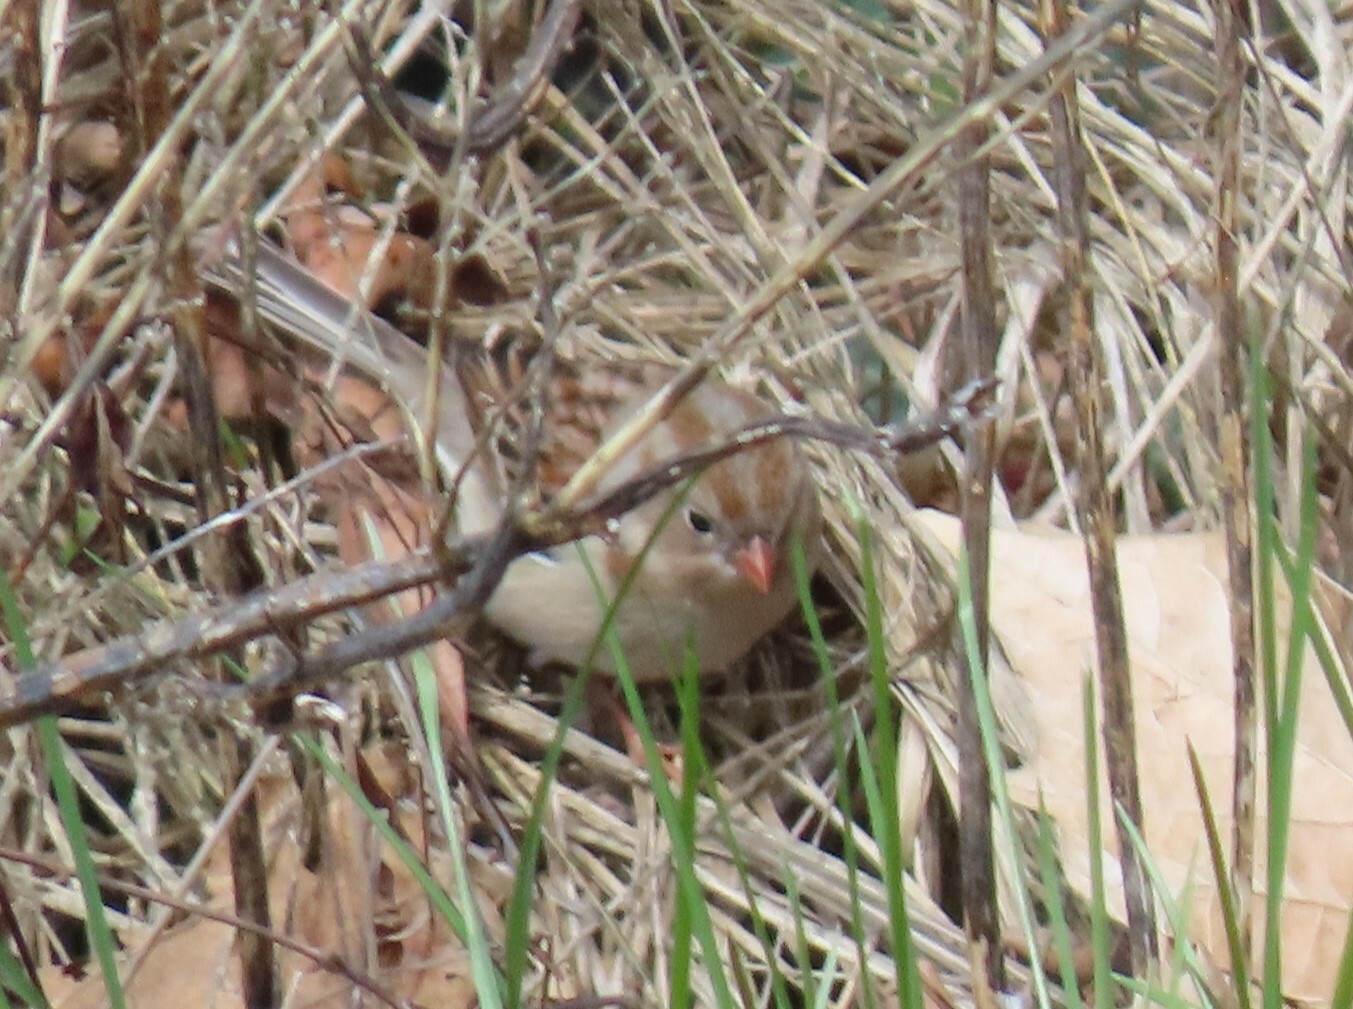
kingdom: Animalia
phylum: Chordata
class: Aves
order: Passeriformes
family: Passerellidae
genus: Spizella
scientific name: Spizella pusilla
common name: Field sparrow
